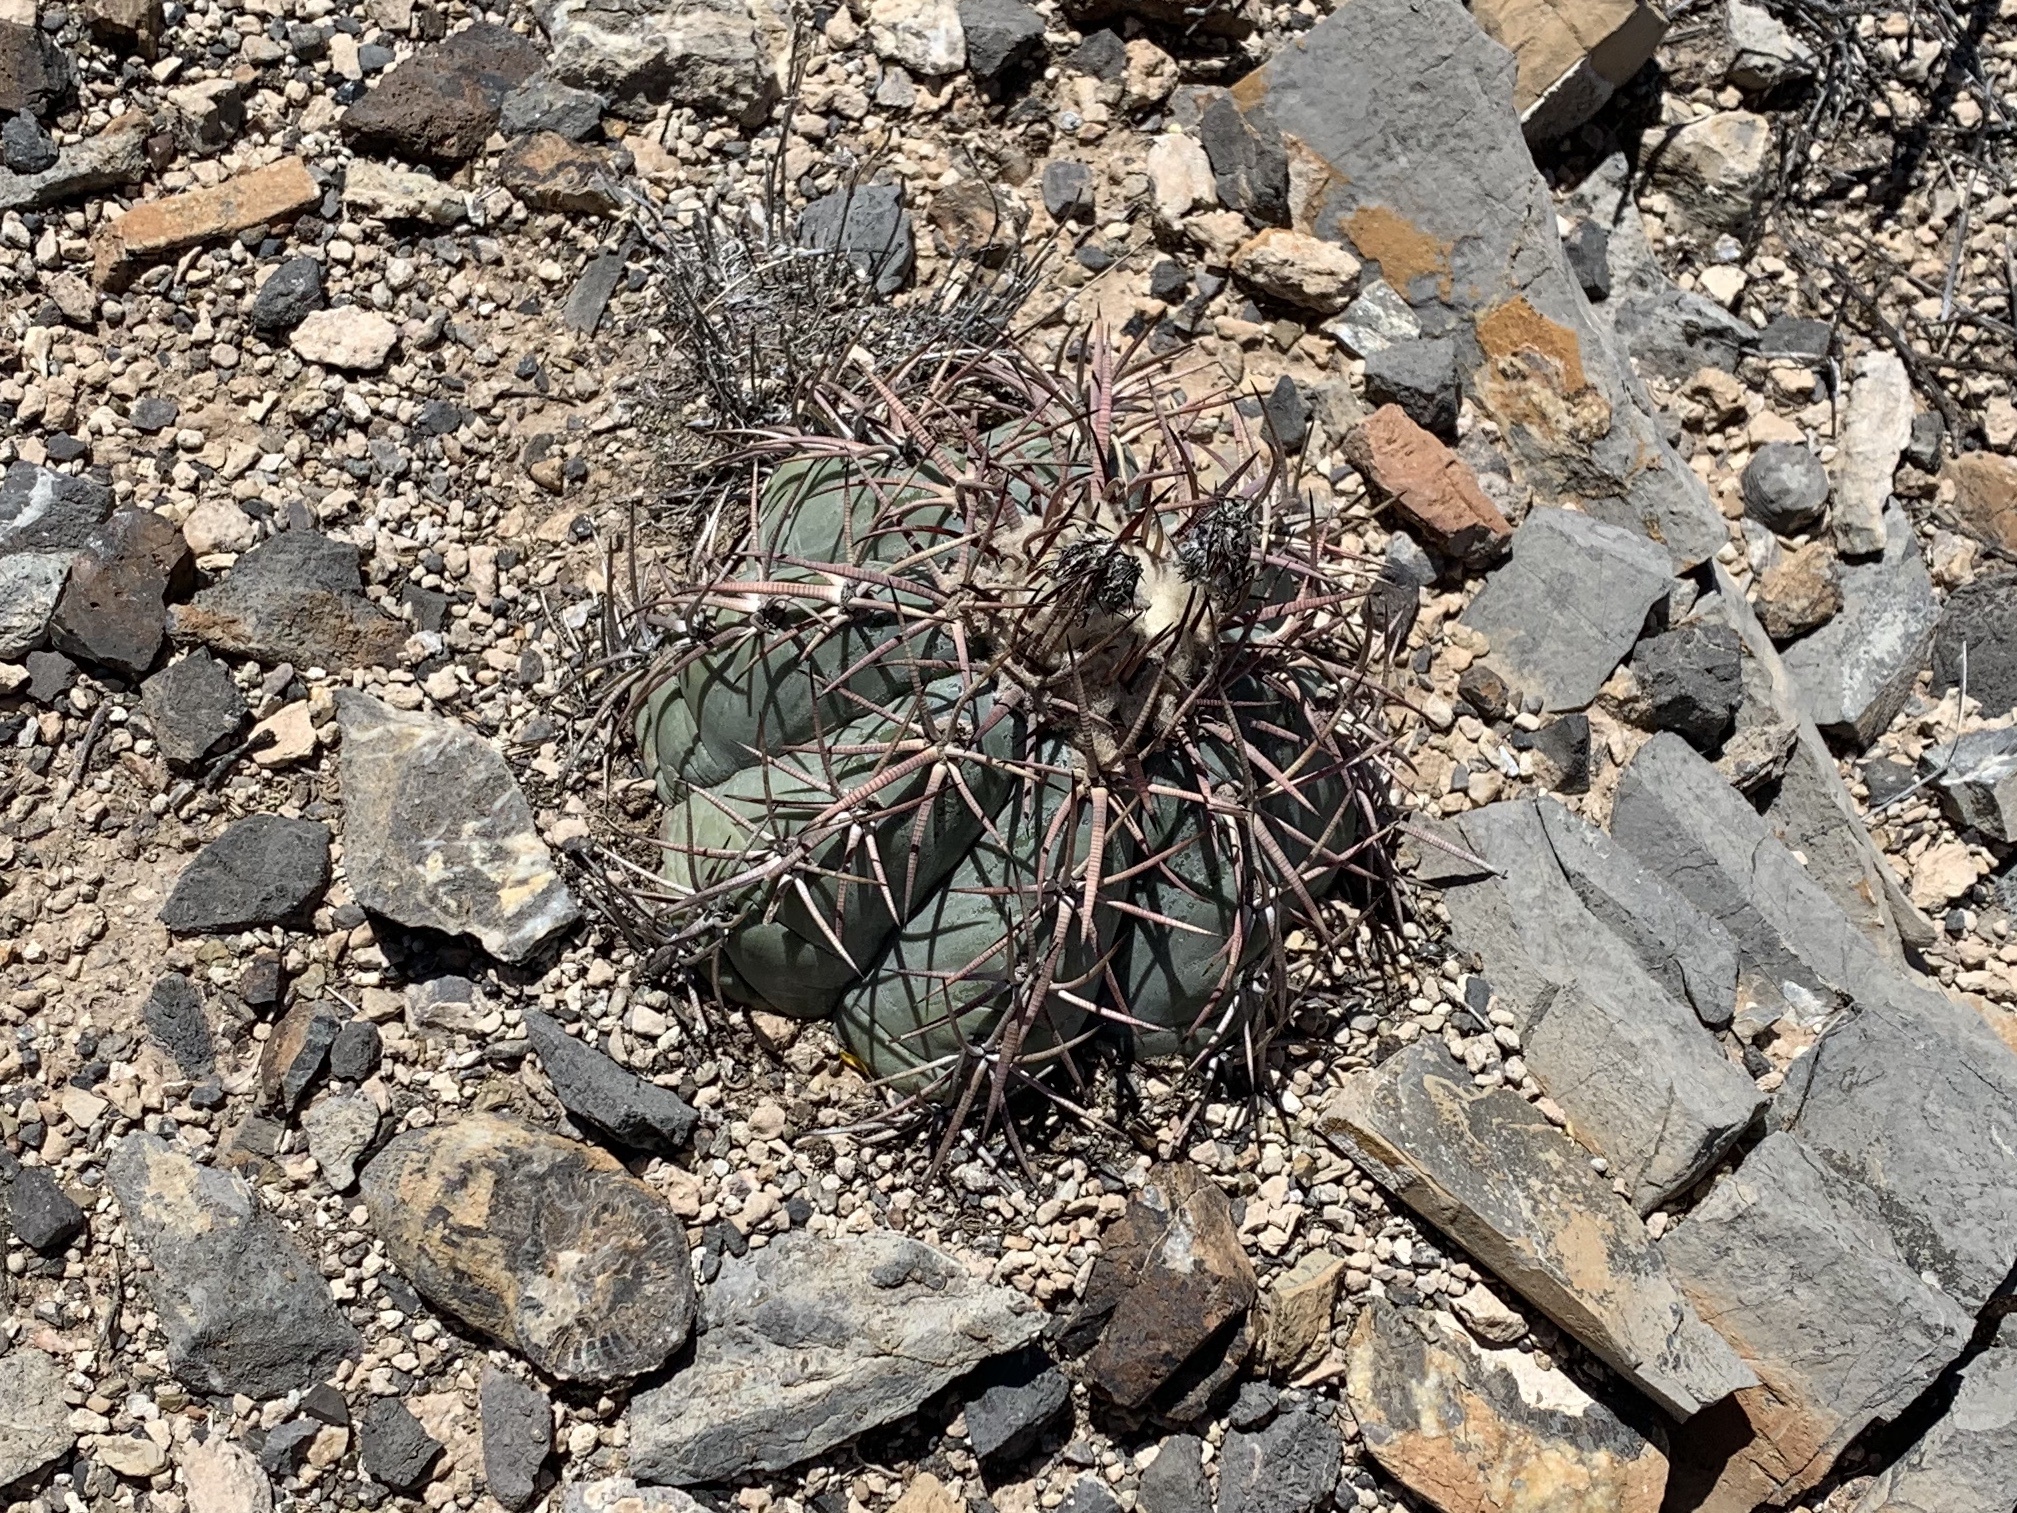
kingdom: Plantae
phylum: Tracheophyta
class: Magnoliopsida
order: Caryophyllales
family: Cactaceae
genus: Echinocactus
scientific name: Echinocactus horizonthalonius
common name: Devilshead
